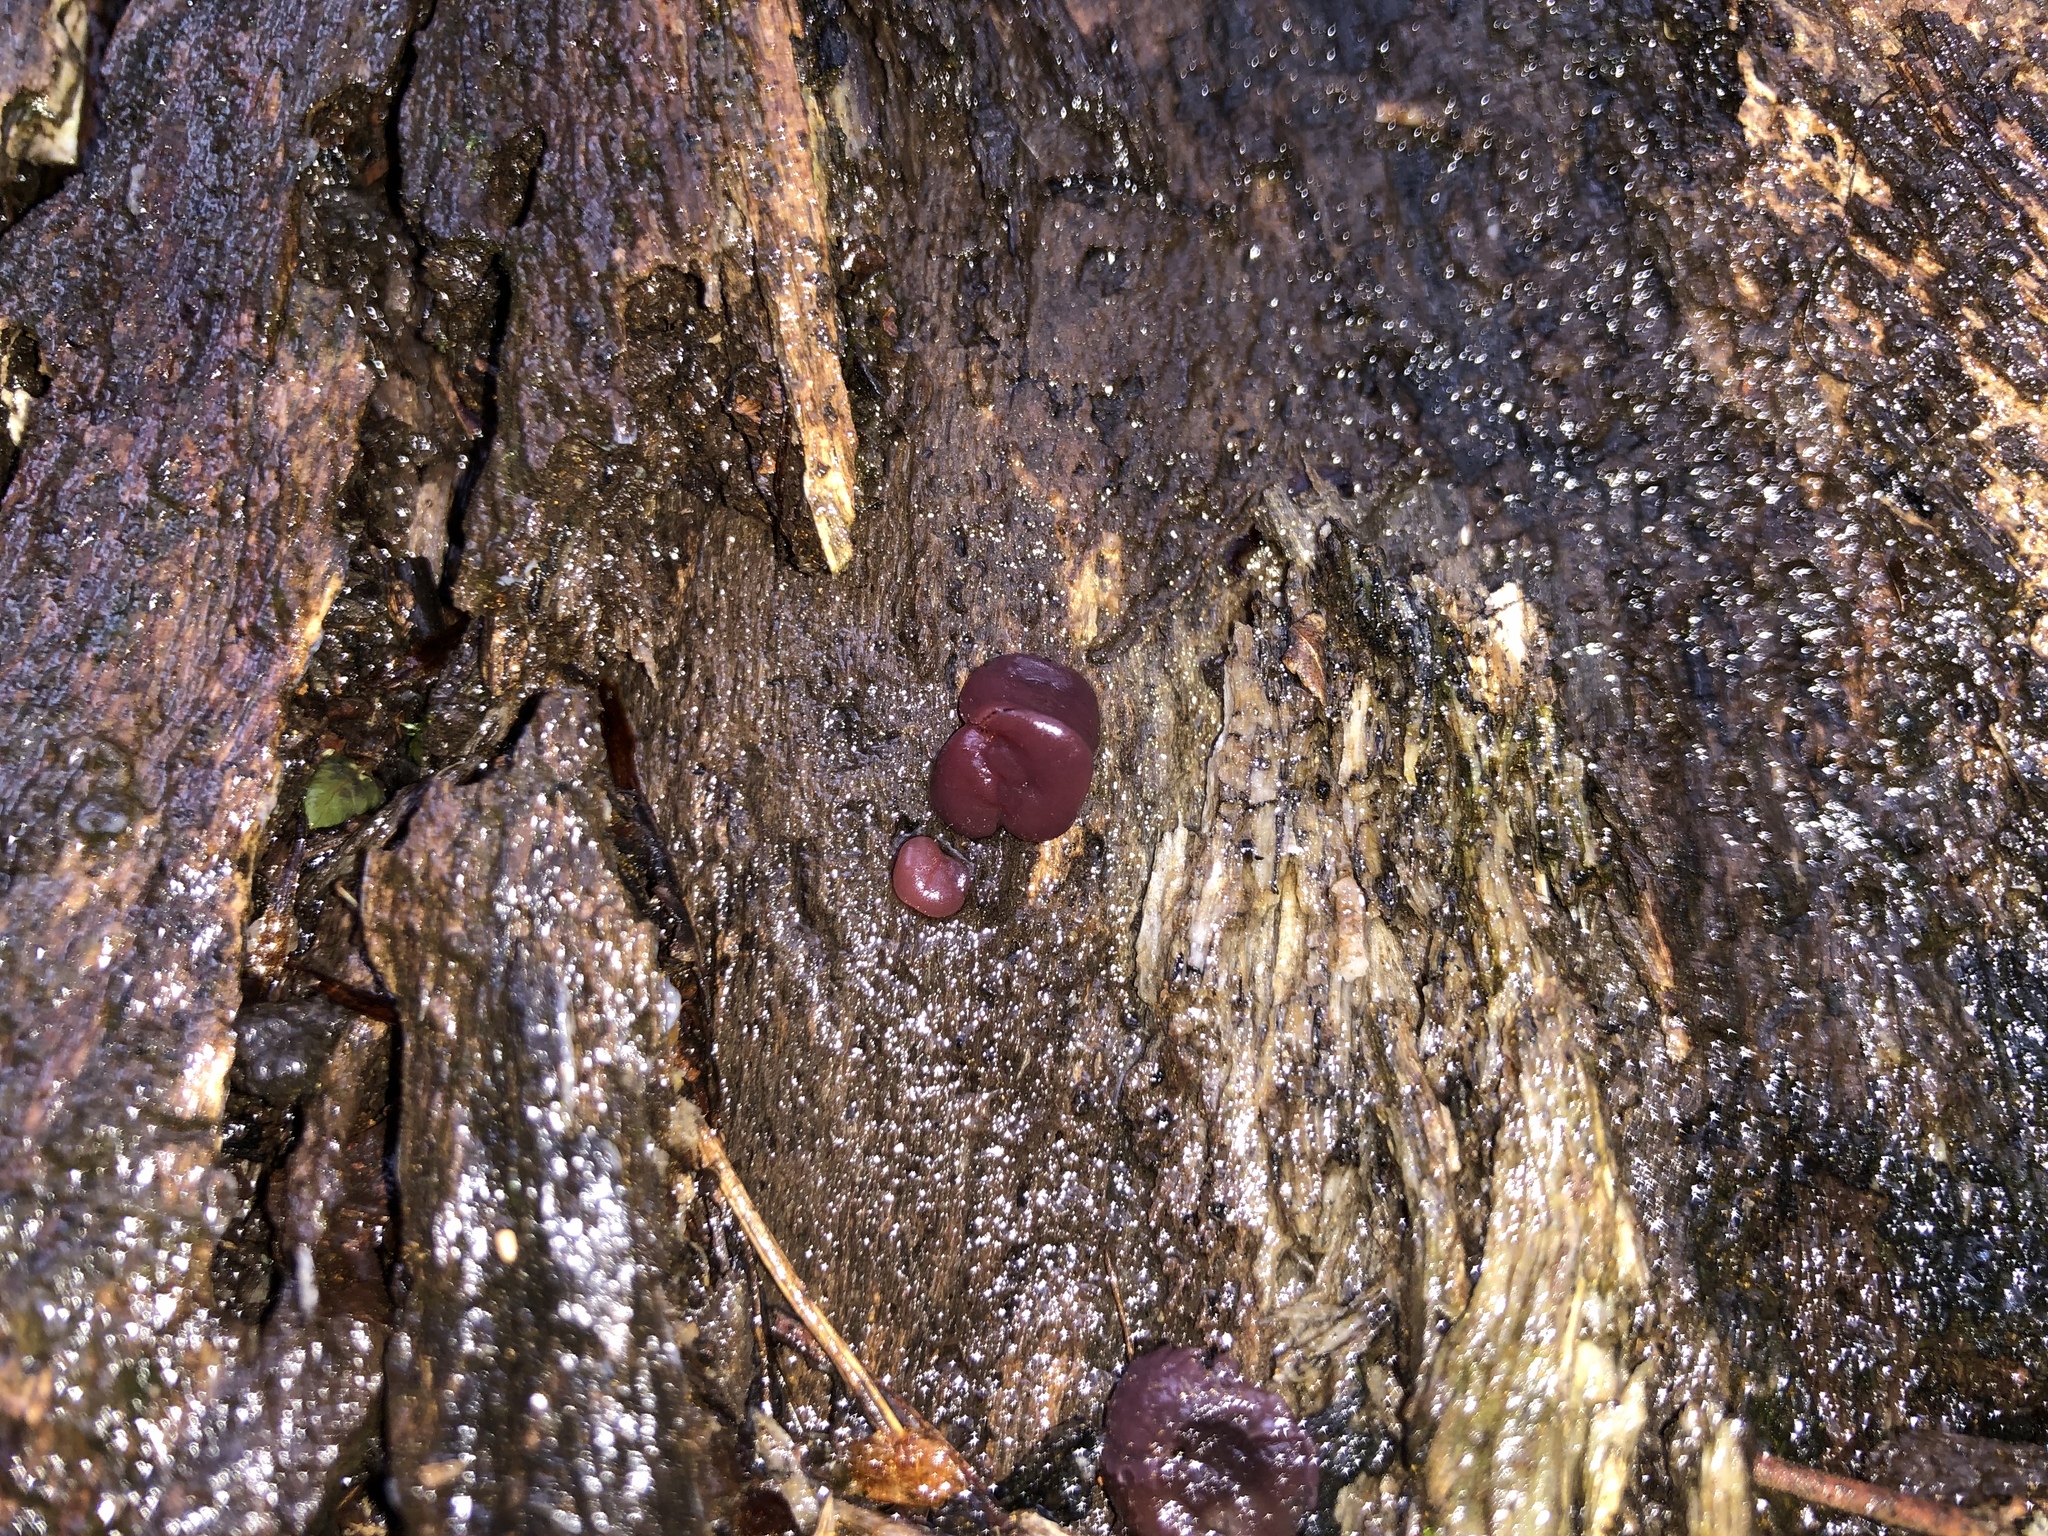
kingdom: Fungi
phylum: Ascomycota
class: Leotiomycetes
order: Helotiales
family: Gelatinodiscaceae
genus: Ascocoryne
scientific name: Ascocoryne sarcoides
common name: Purple jellydisc
